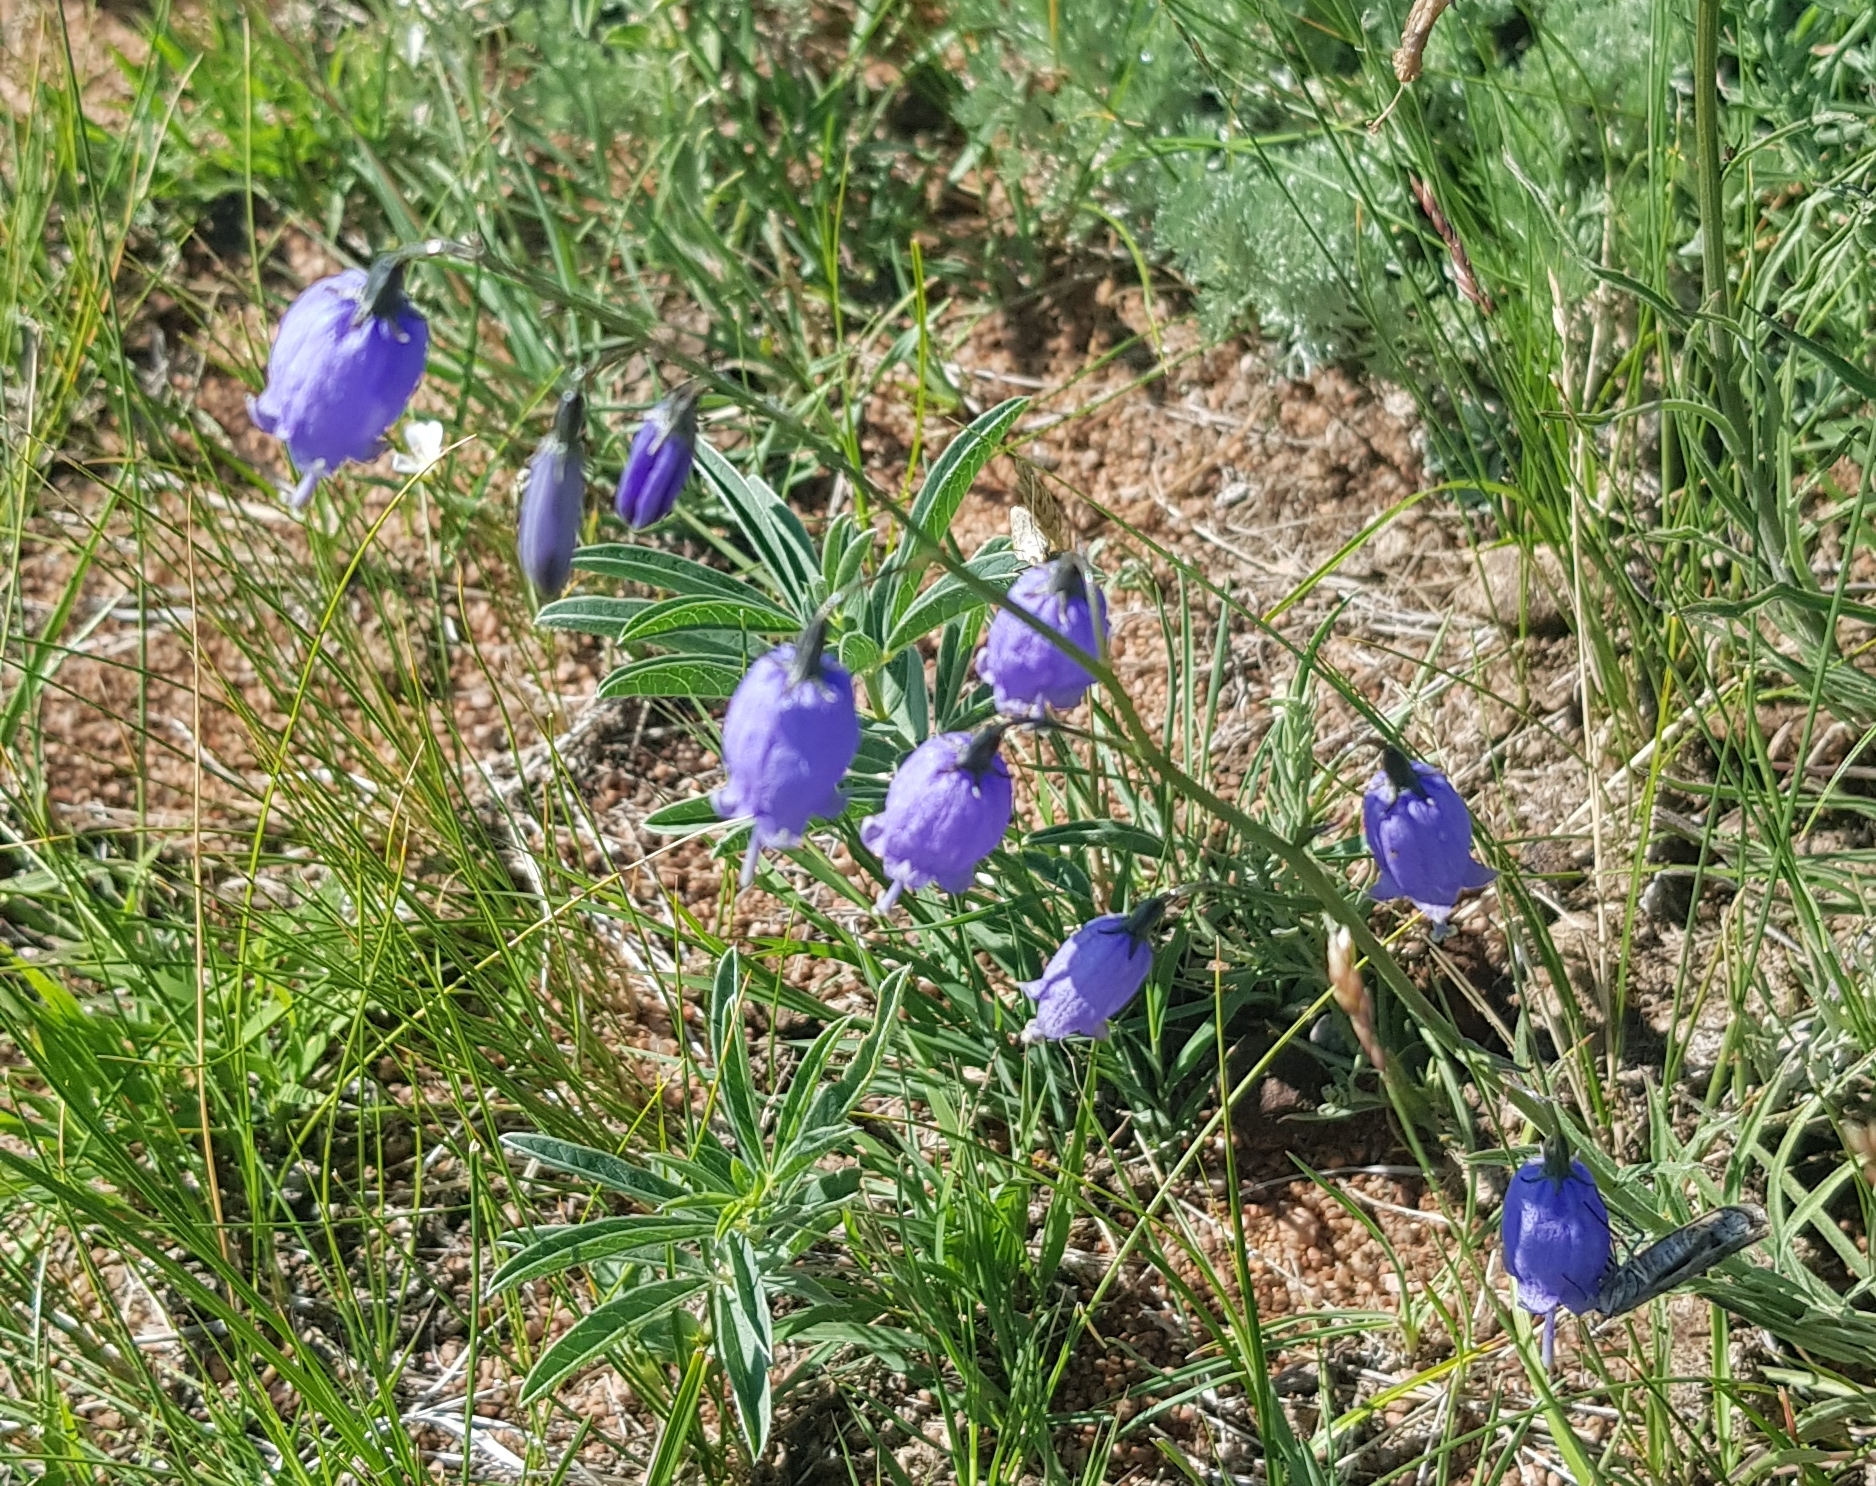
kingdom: Plantae
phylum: Tracheophyta
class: Magnoliopsida
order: Asterales
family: Campanulaceae
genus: Adenophora
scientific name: Adenophora stenanthina
